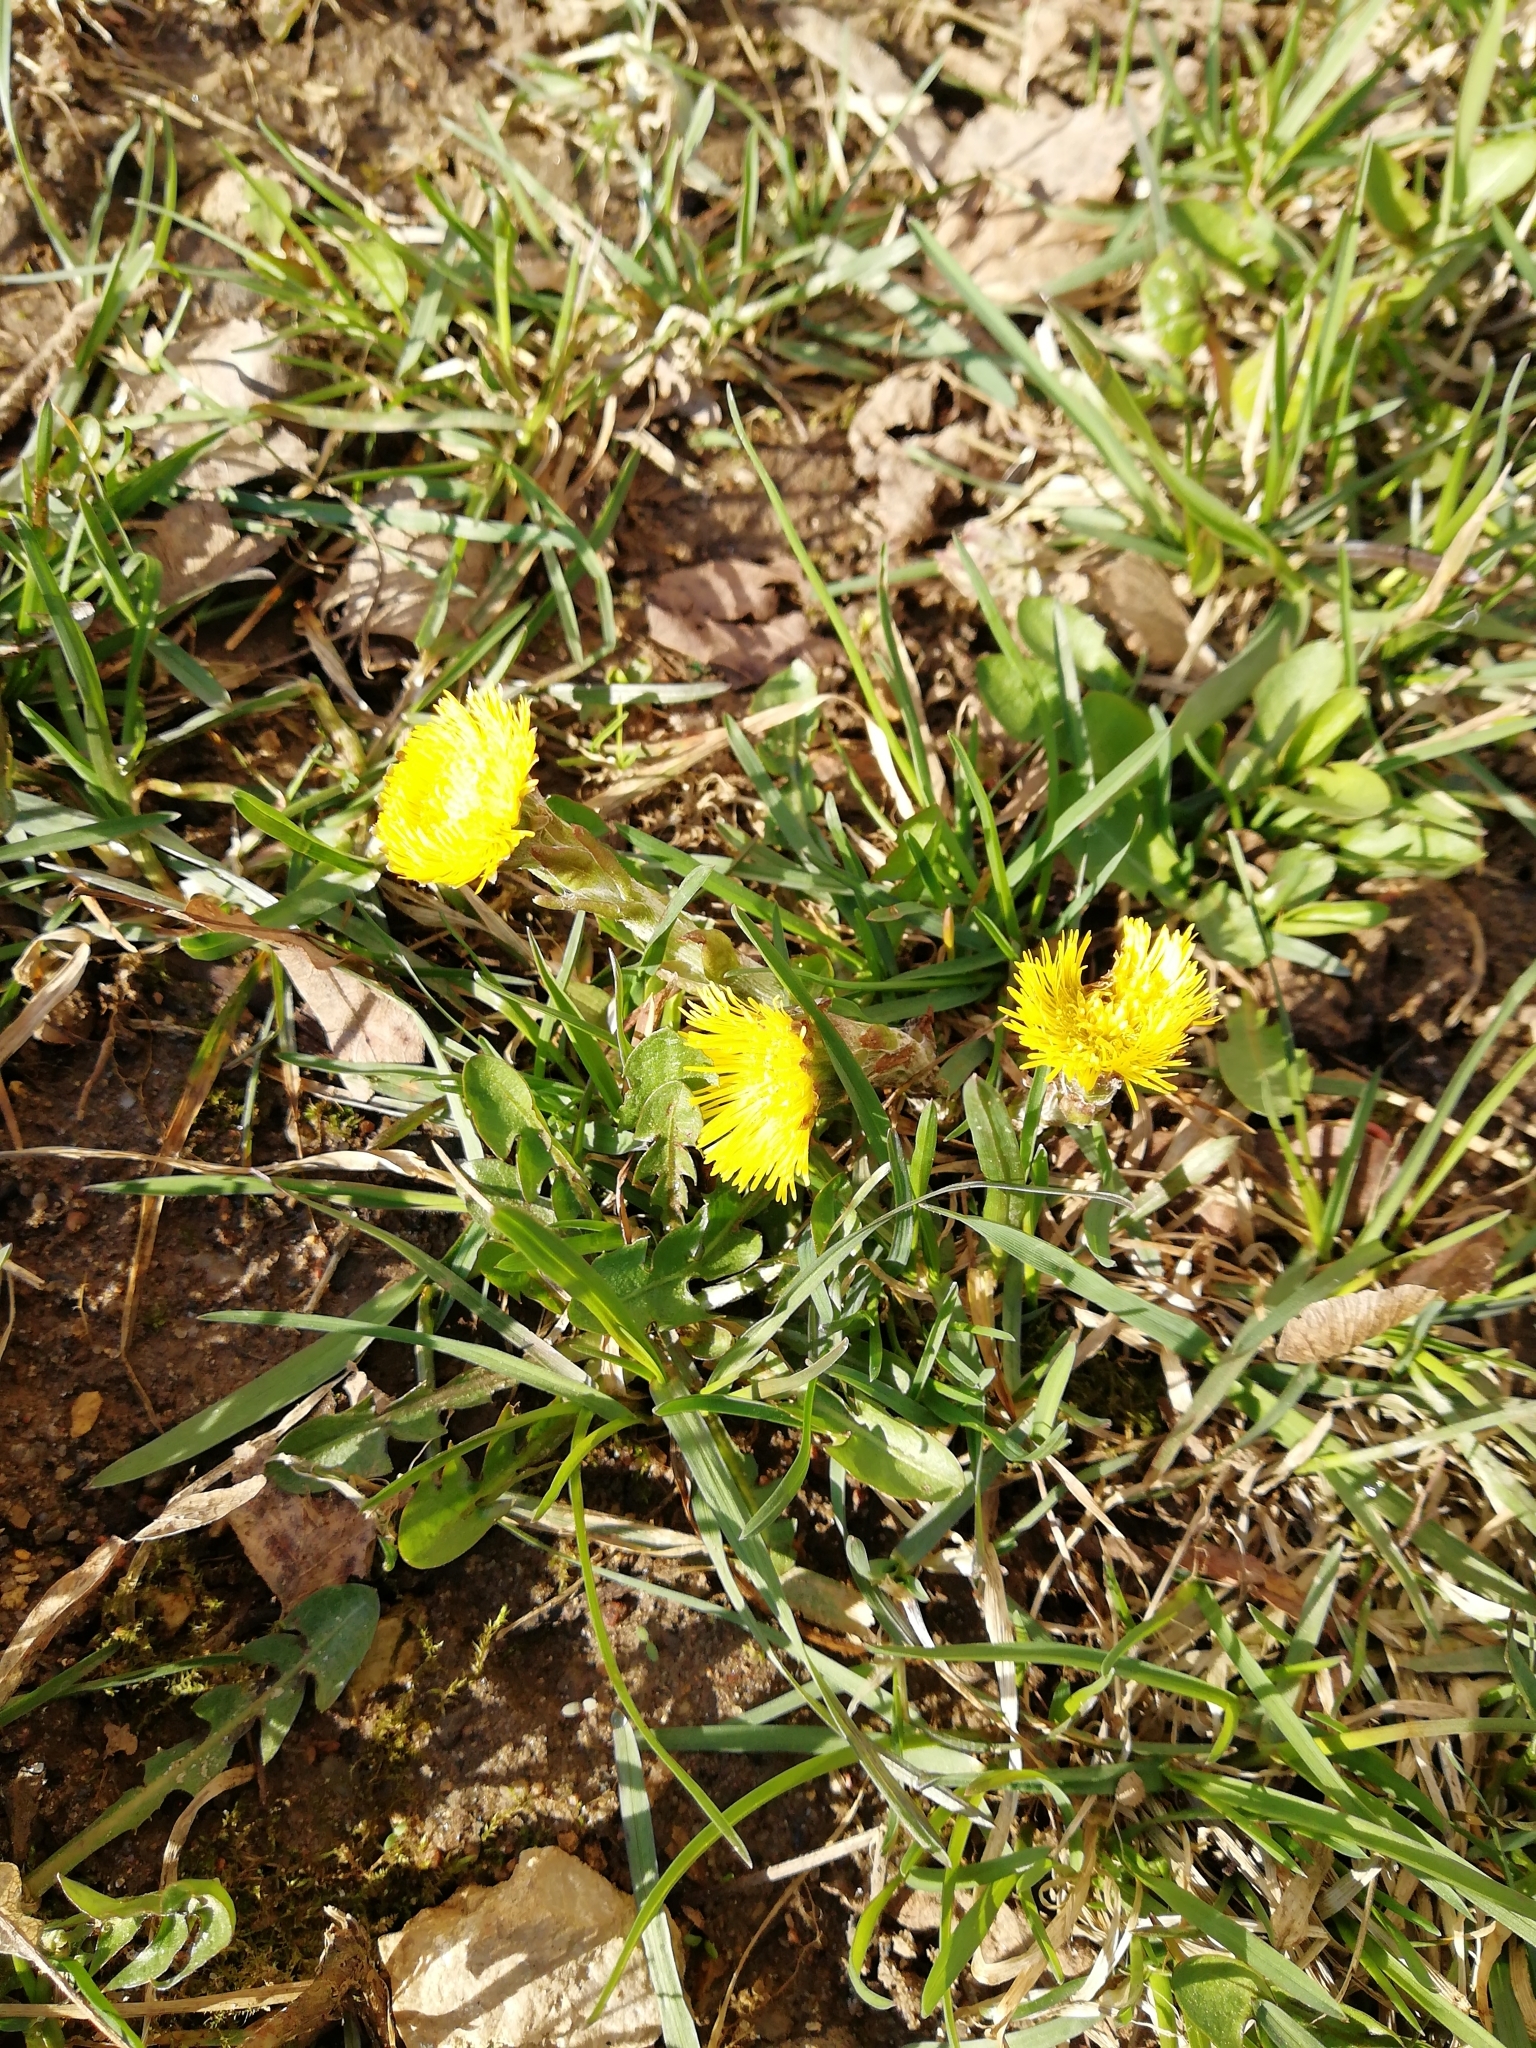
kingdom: Plantae
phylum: Tracheophyta
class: Magnoliopsida
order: Asterales
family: Asteraceae
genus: Tussilago
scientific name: Tussilago farfara
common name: Coltsfoot
